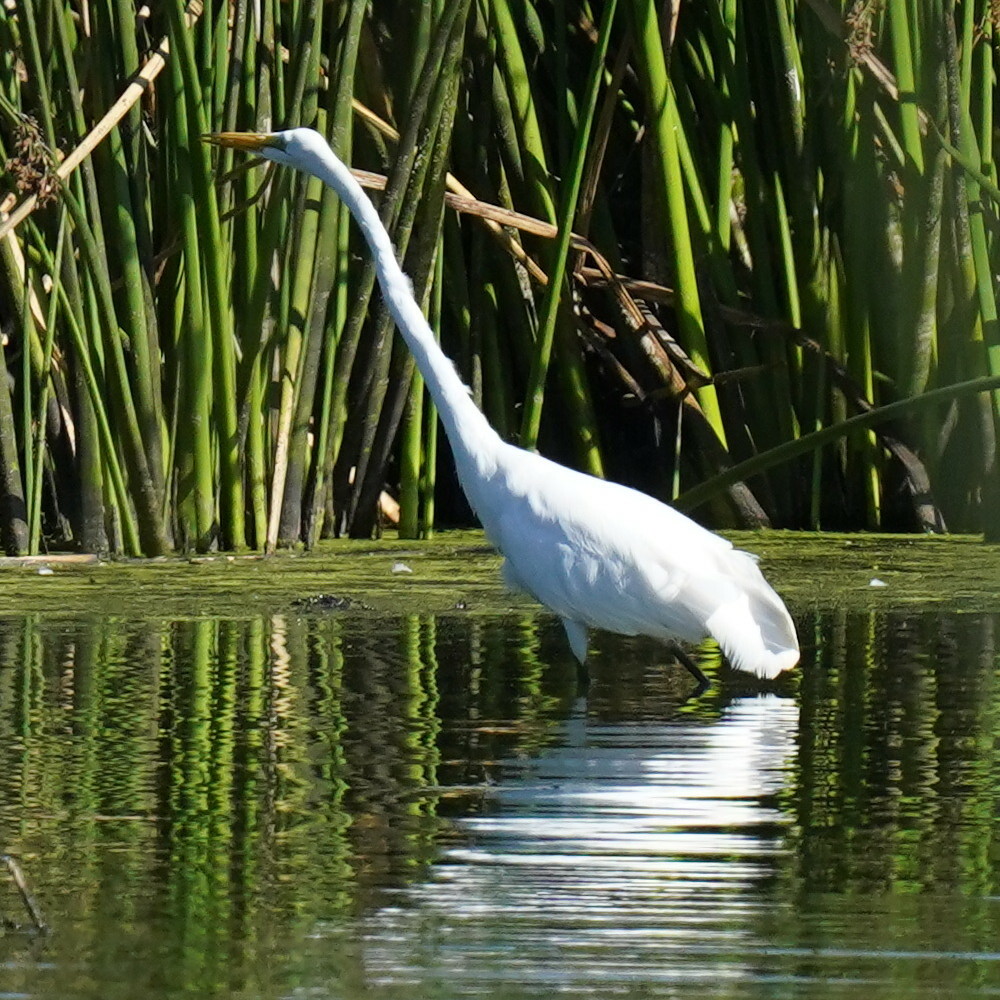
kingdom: Animalia
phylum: Chordata
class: Aves
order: Pelecaniformes
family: Ardeidae
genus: Ardea
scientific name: Ardea alba
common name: Great egret
